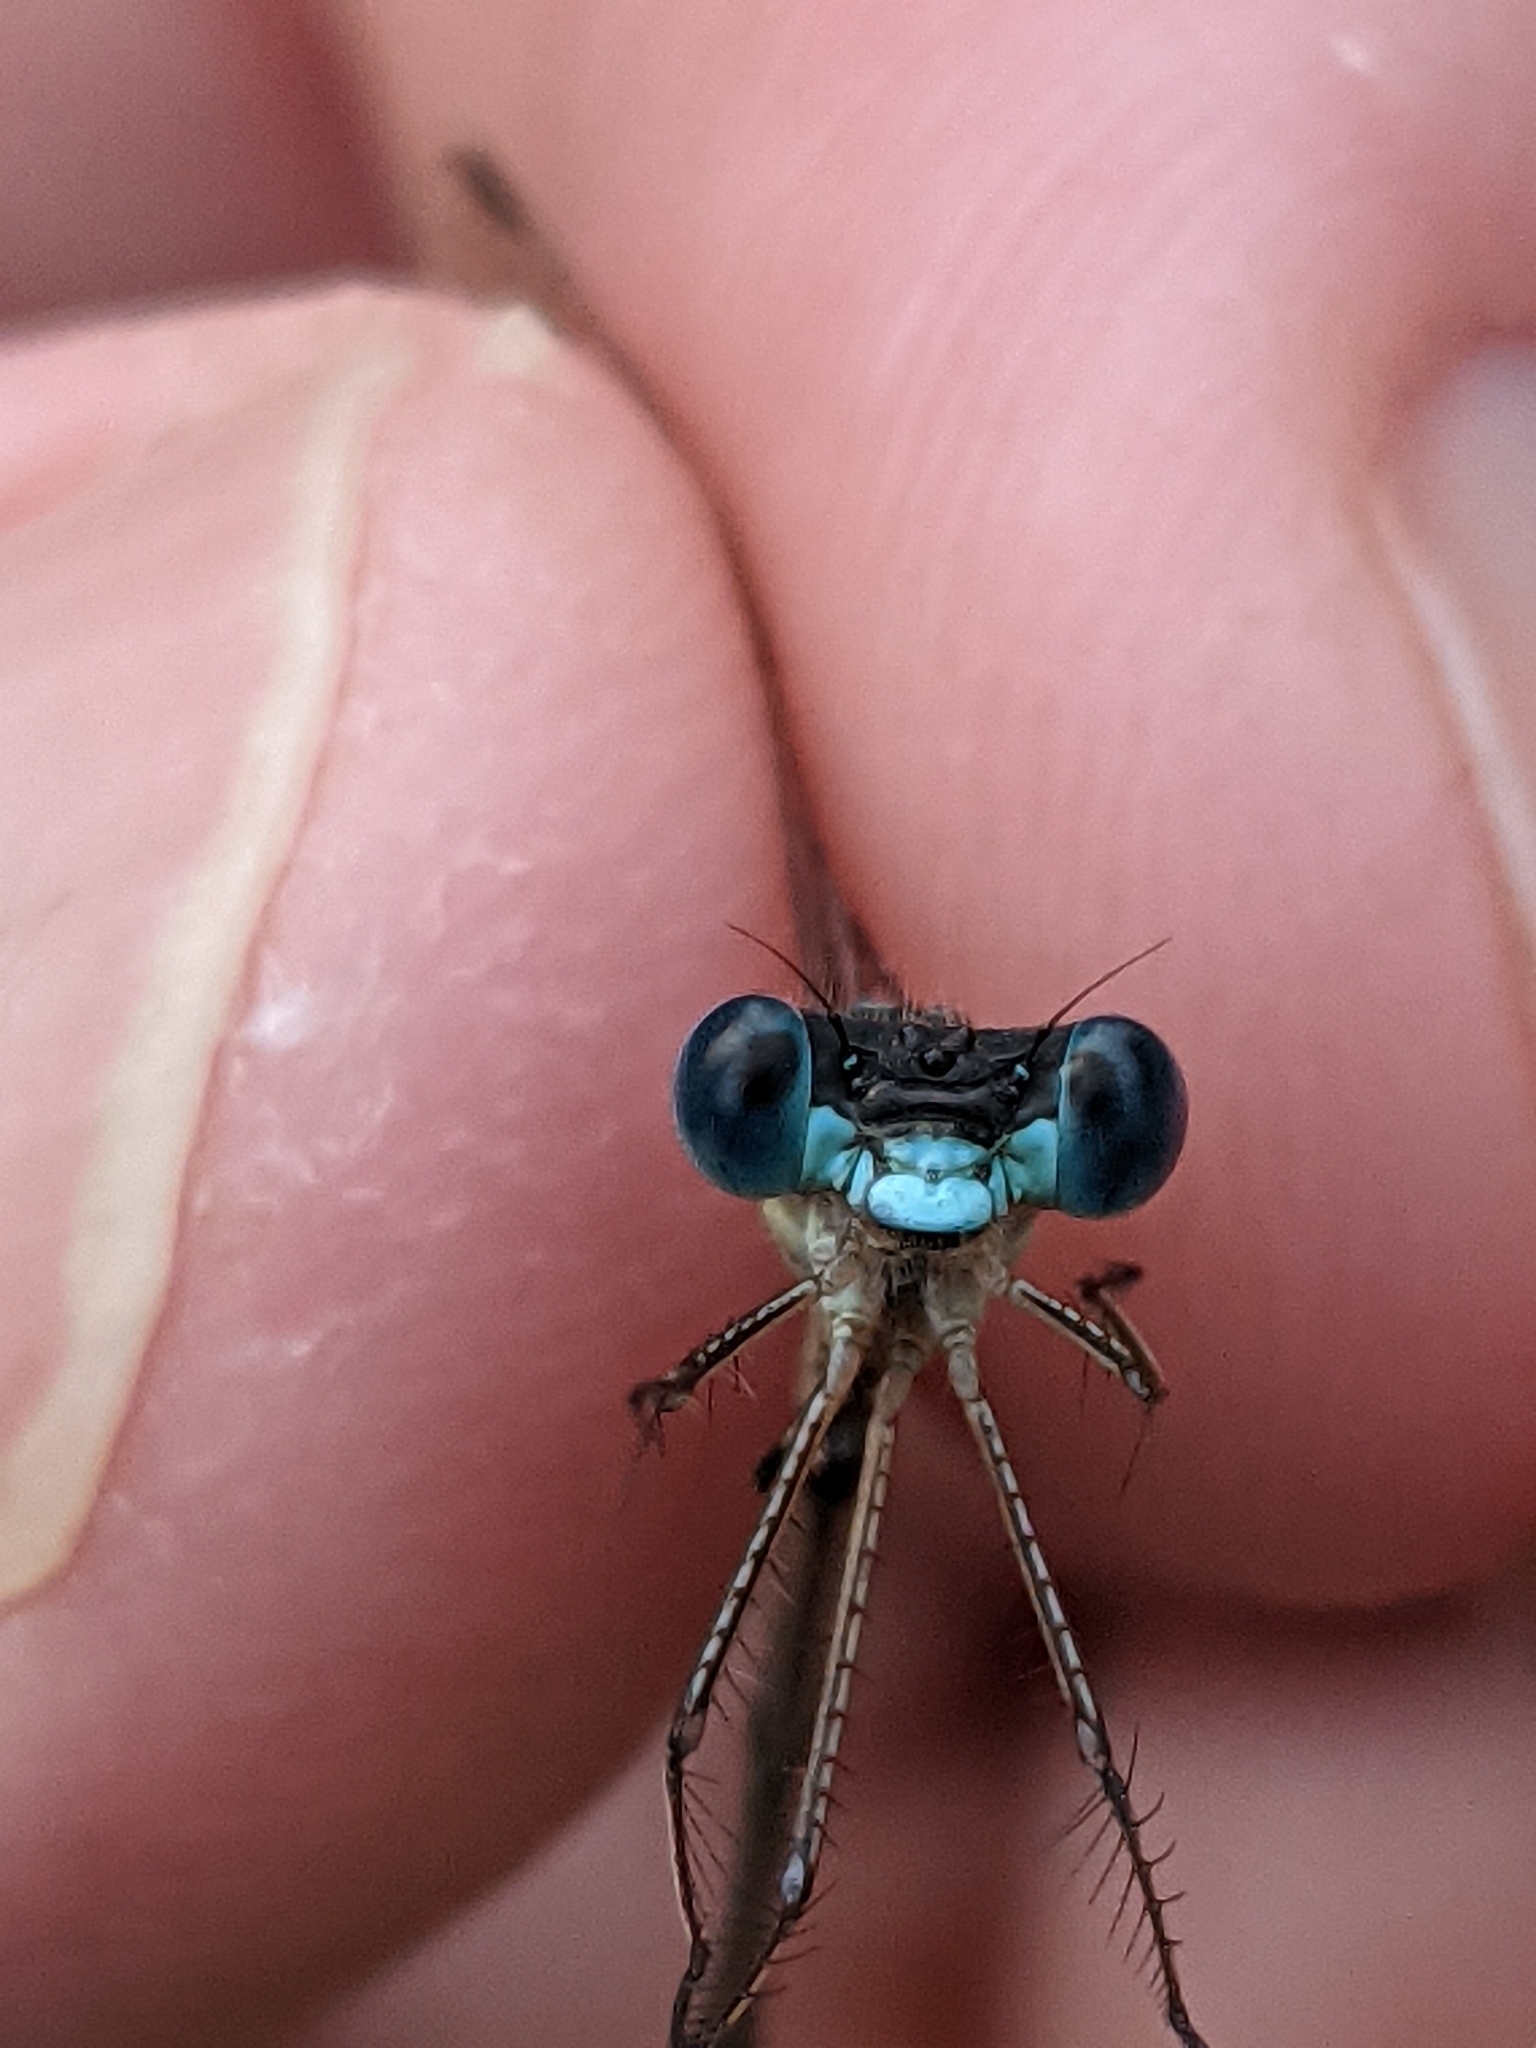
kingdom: Animalia
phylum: Arthropoda
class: Insecta
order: Odonata
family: Lestidae
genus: Lestes
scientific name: Lestes rectangularis
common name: Slender spreadwing
